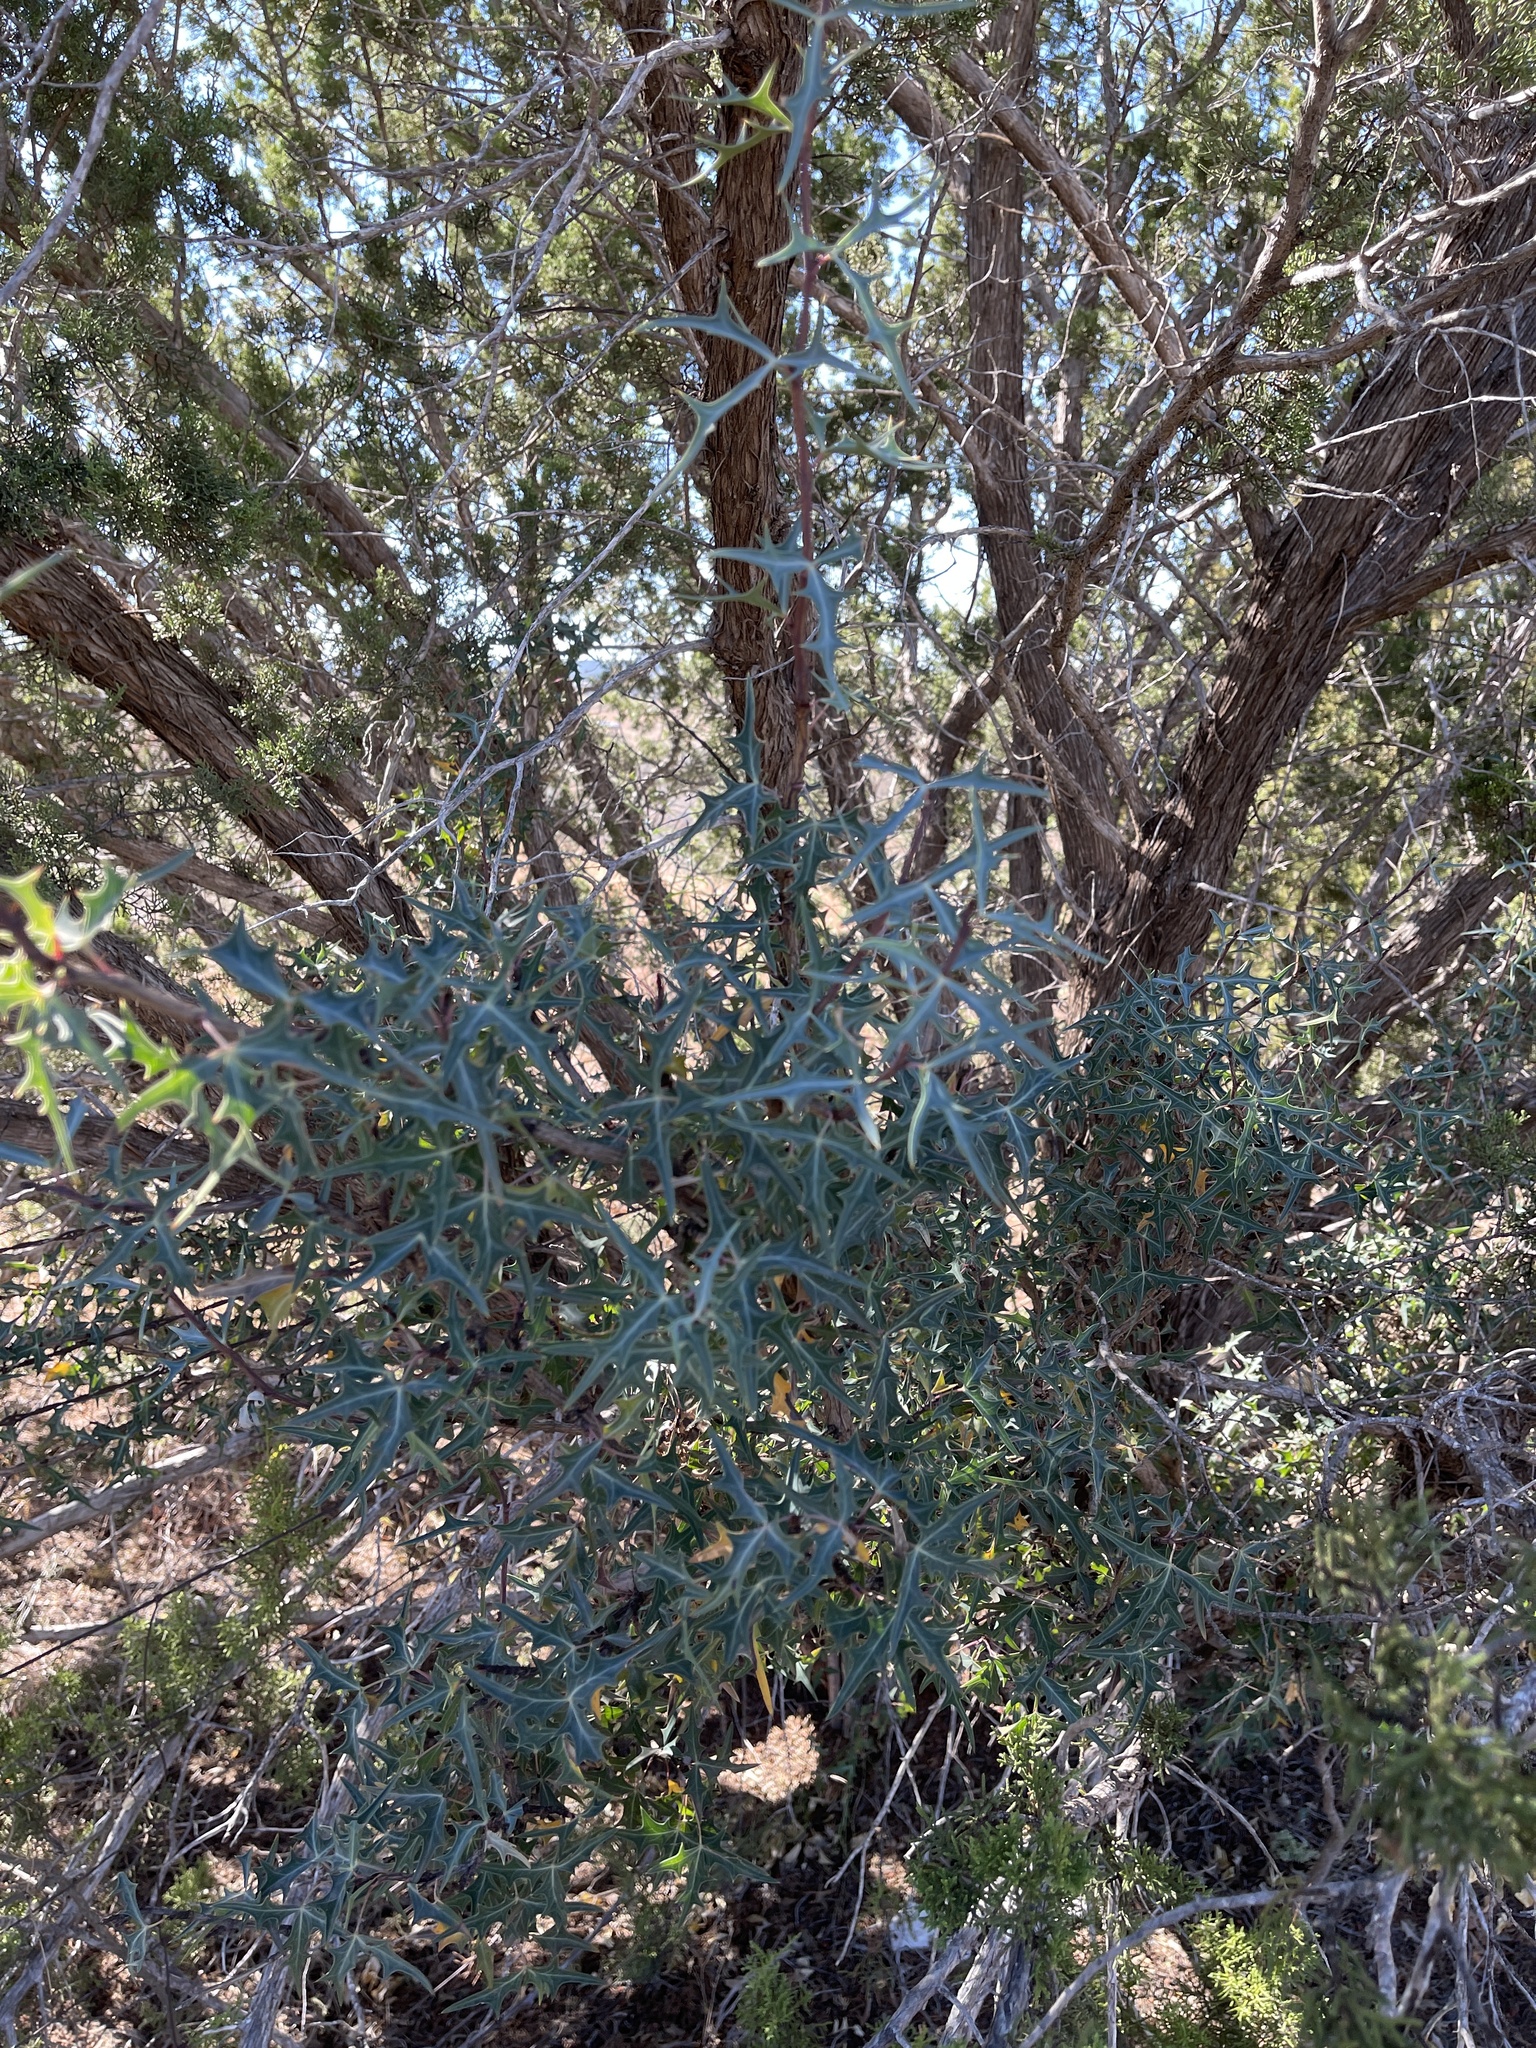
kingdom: Plantae
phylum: Tracheophyta
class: Magnoliopsida
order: Ranunculales
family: Berberidaceae
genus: Alloberberis
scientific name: Alloberberis trifoliolata
